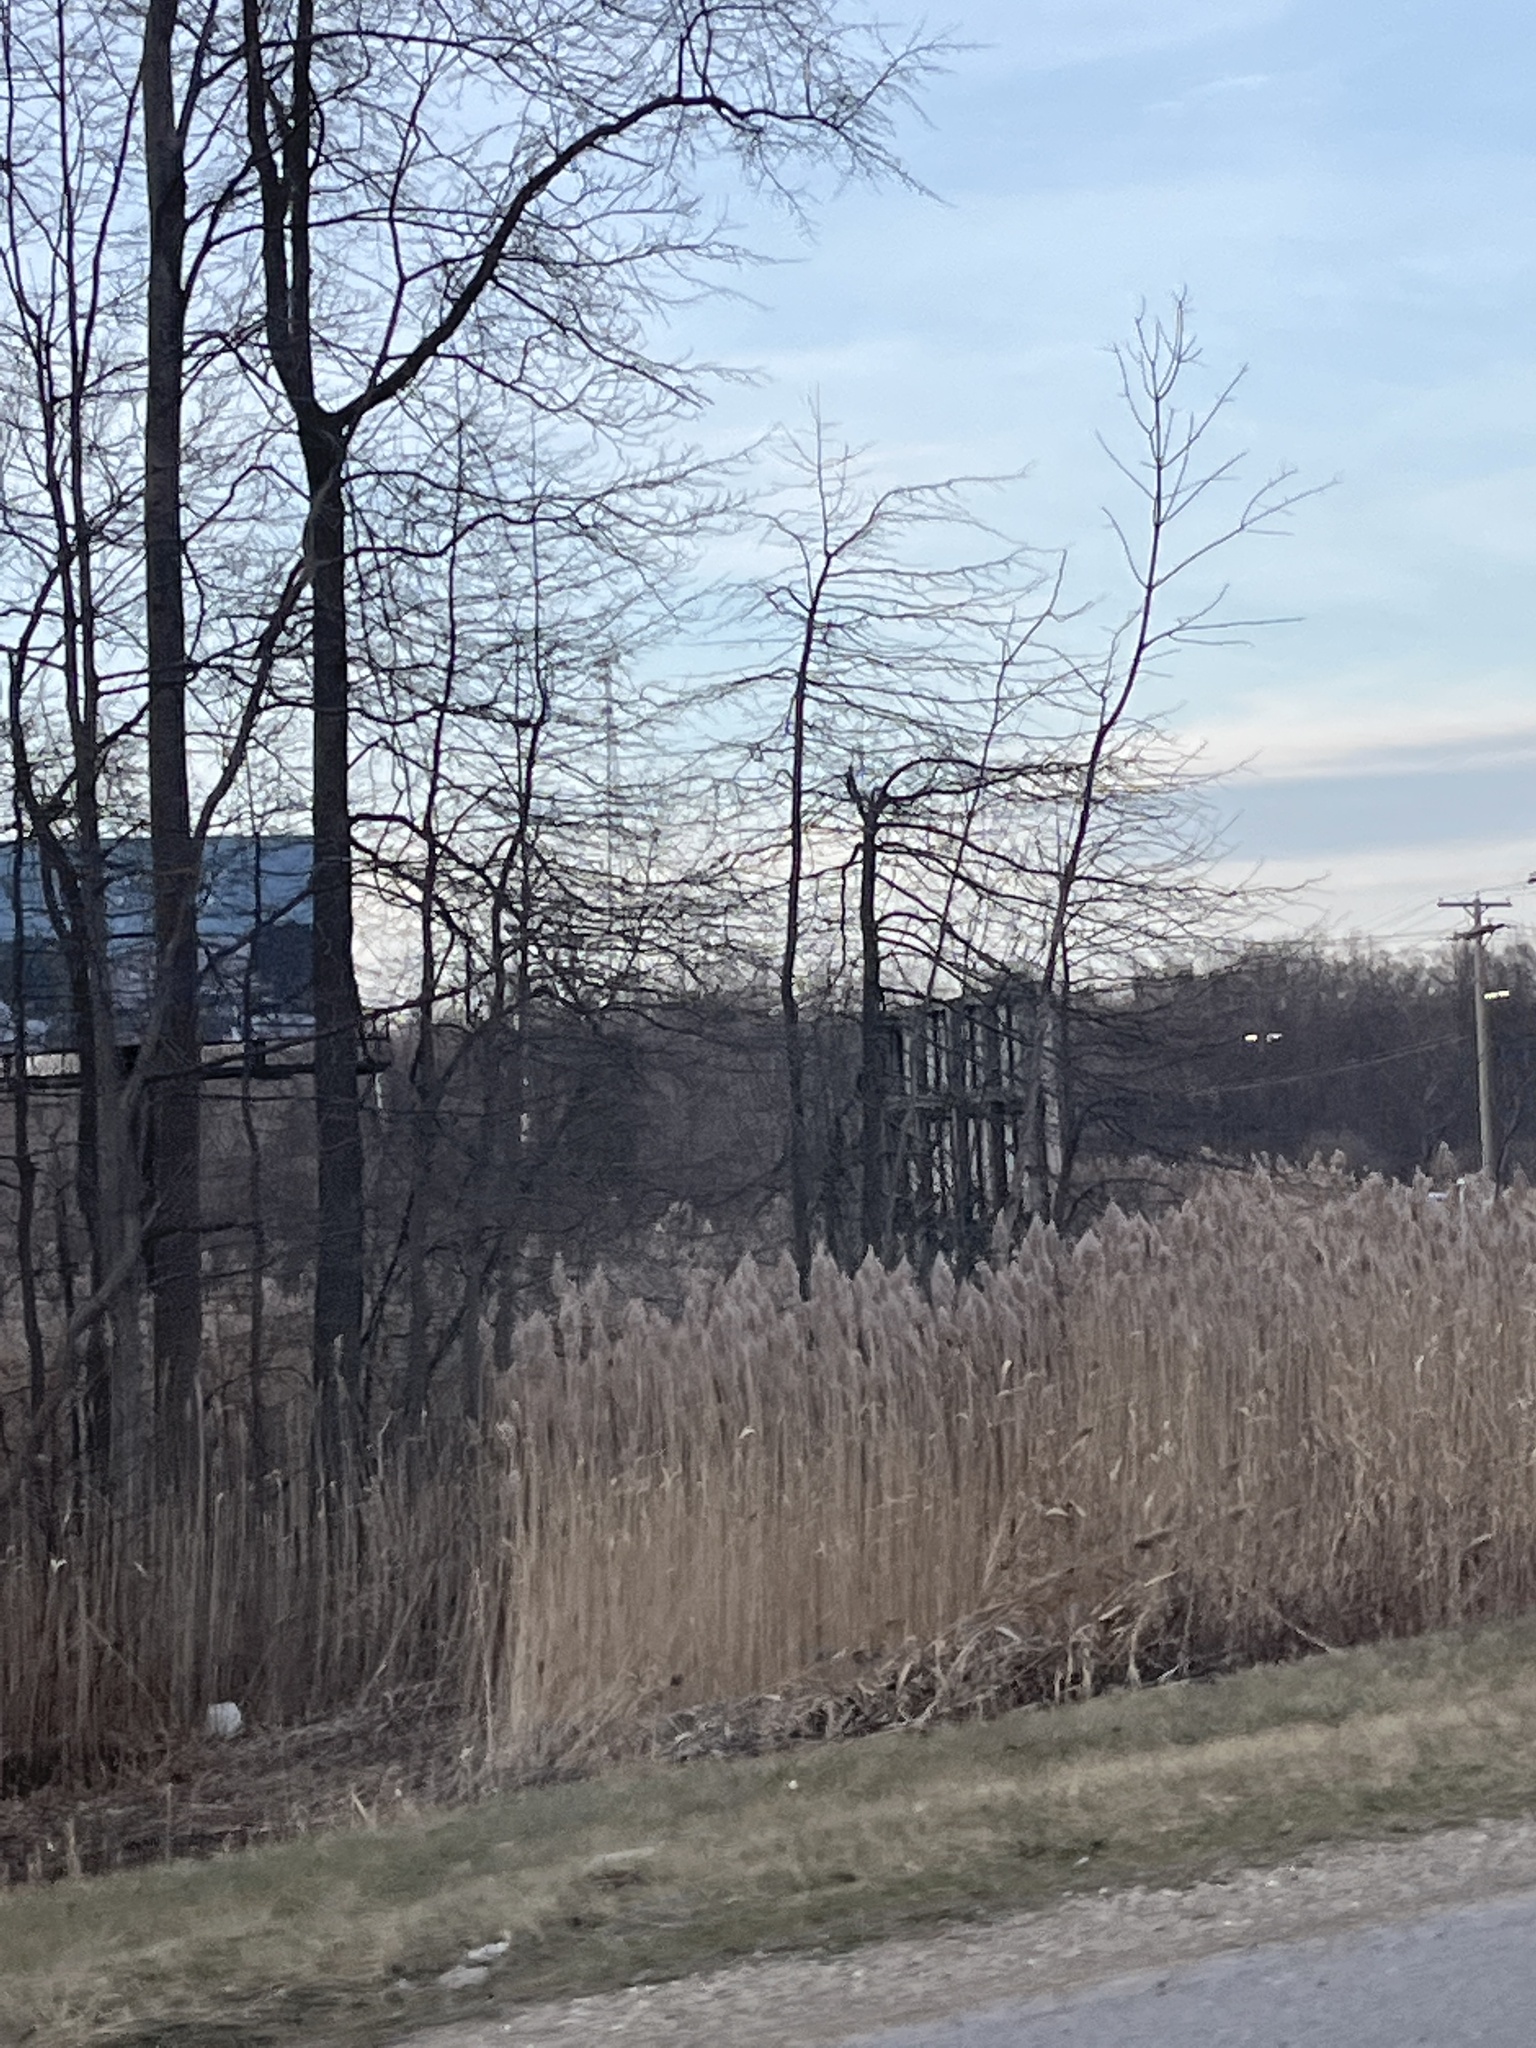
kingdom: Plantae
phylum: Tracheophyta
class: Liliopsida
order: Poales
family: Poaceae
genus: Phragmites
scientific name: Phragmites australis
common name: Common reed
